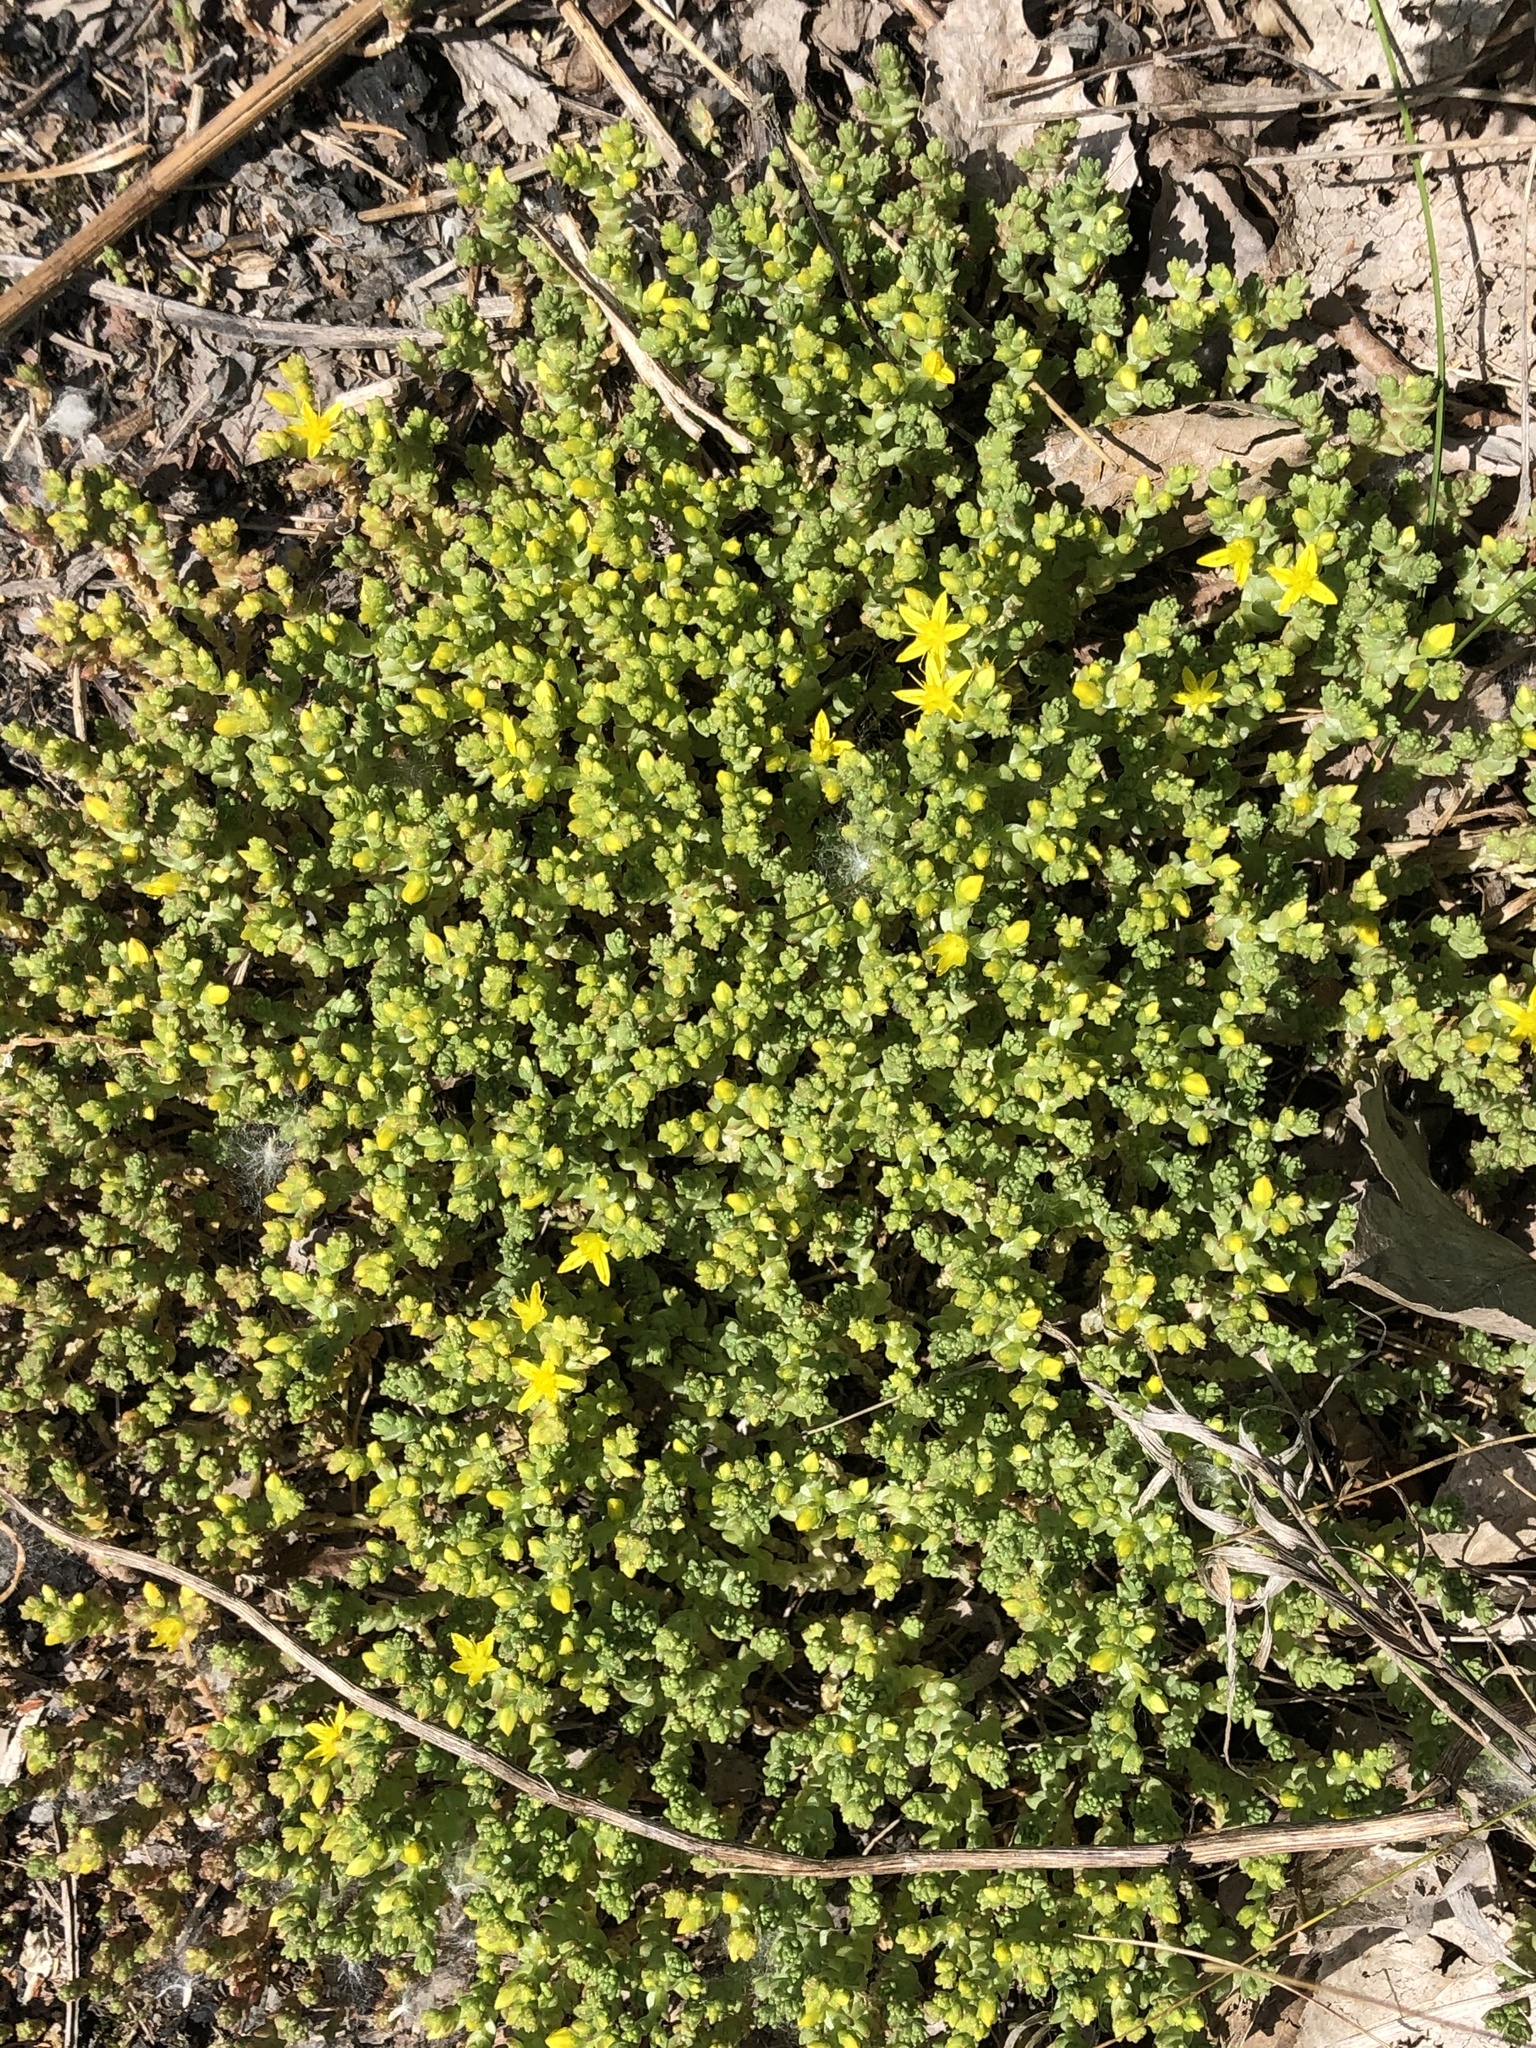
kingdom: Plantae
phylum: Tracheophyta
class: Magnoliopsida
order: Saxifragales
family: Crassulaceae
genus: Sedum
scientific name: Sedum acre
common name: Biting stonecrop
